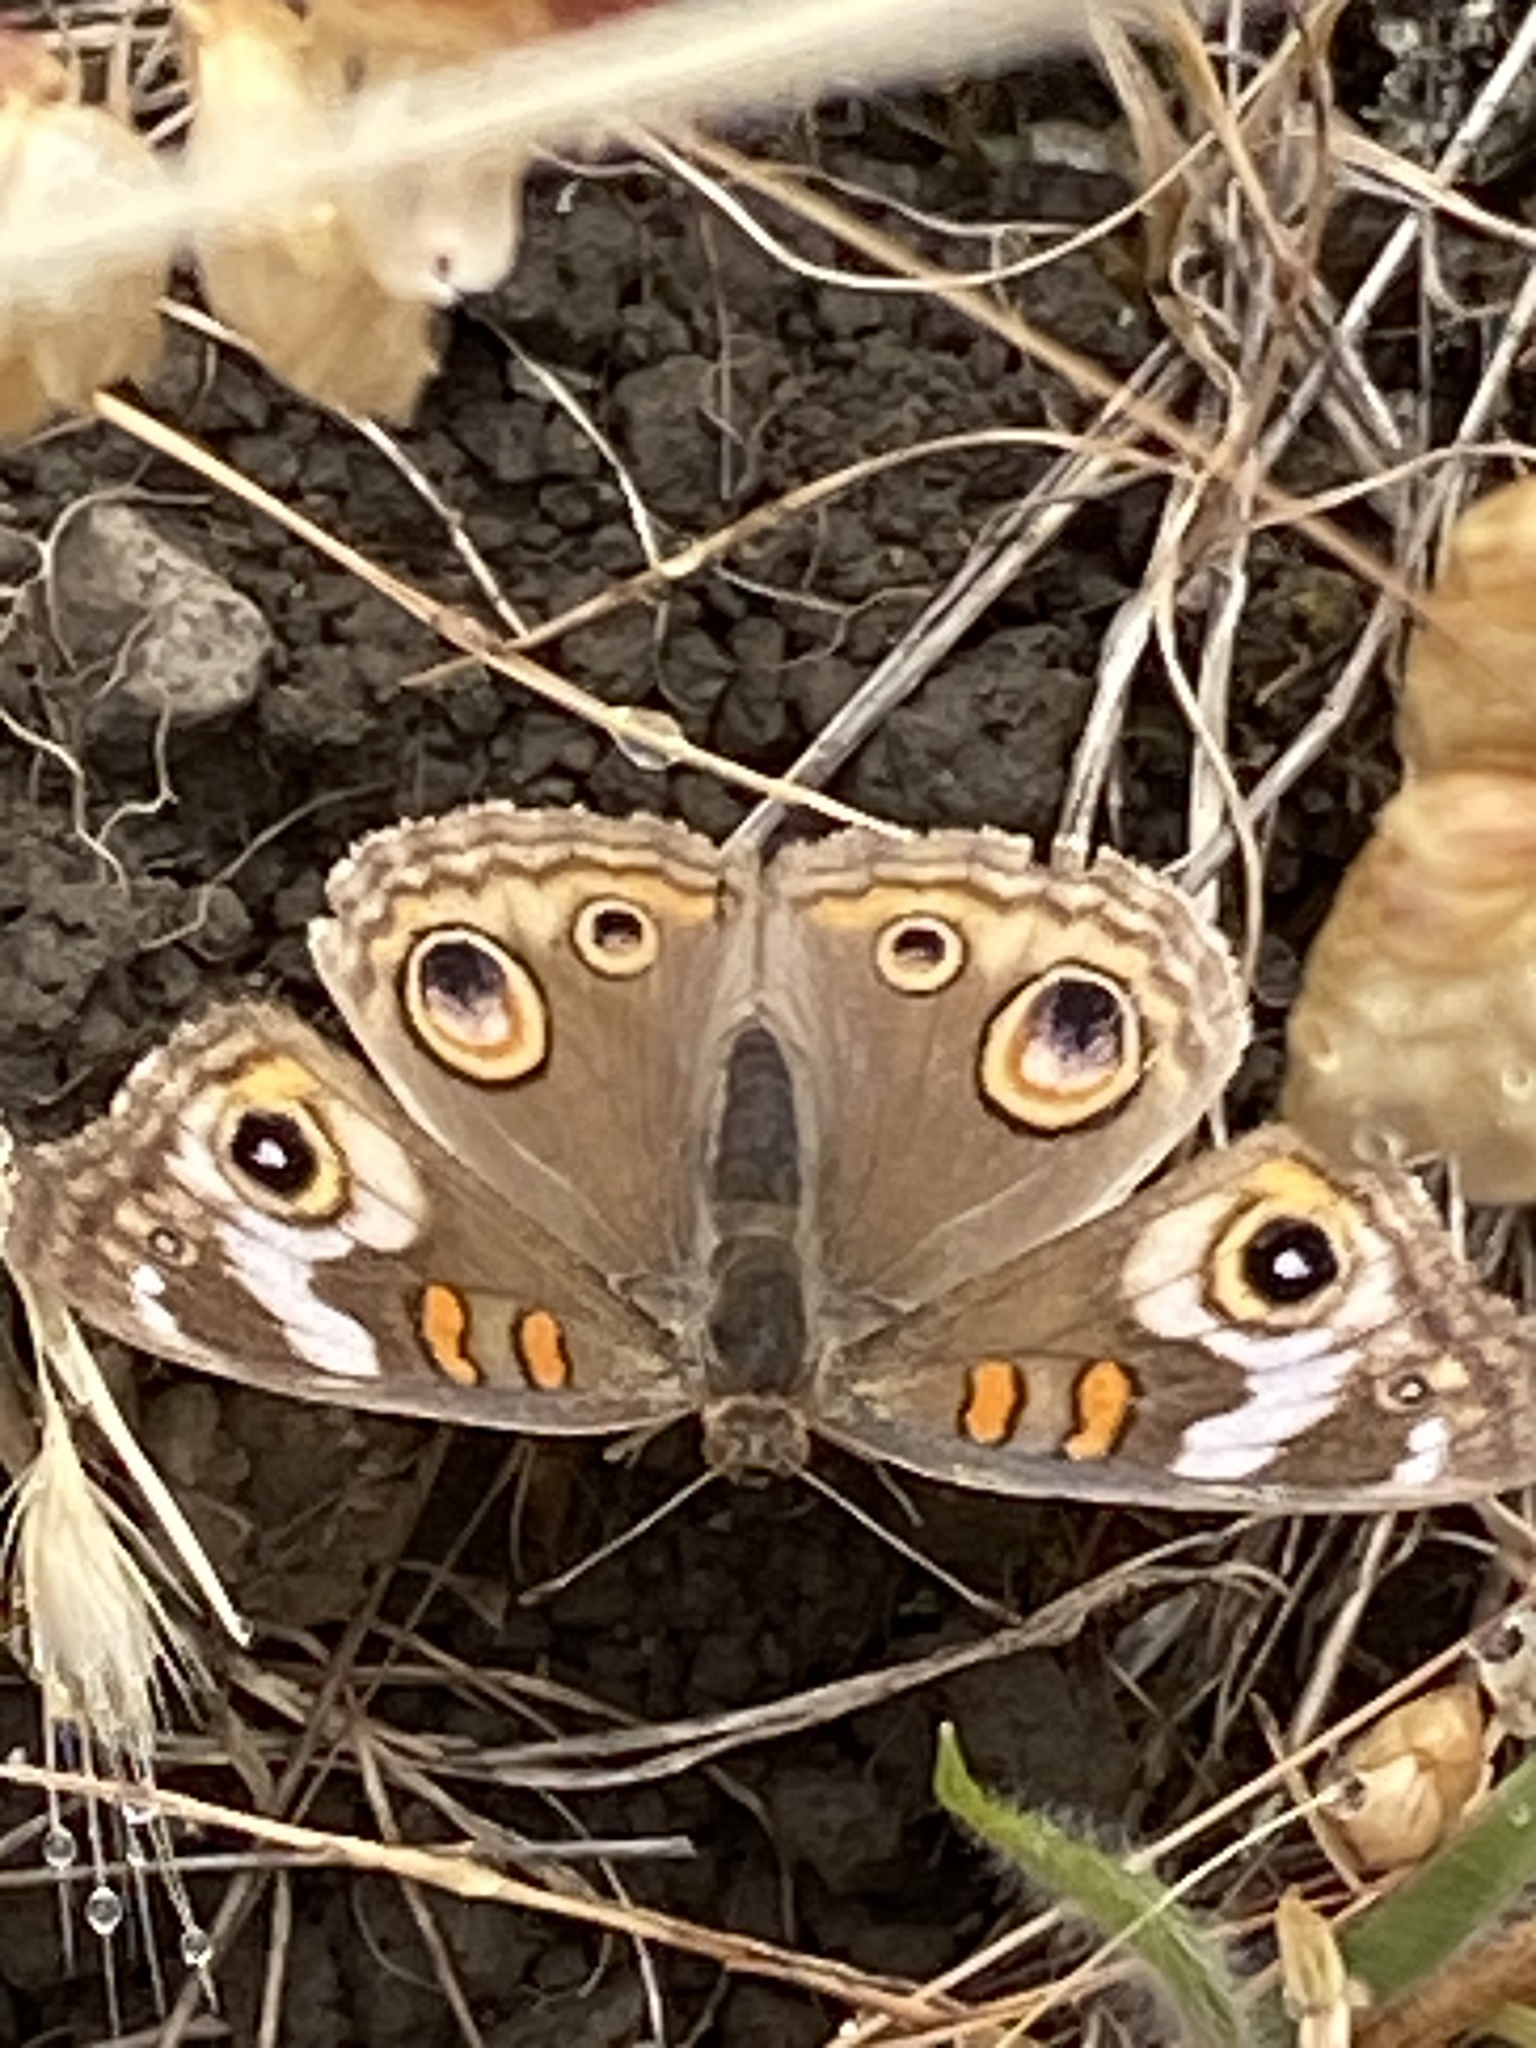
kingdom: Animalia
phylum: Arthropoda
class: Insecta
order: Lepidoptera
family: Nymphalidae
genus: Junonia
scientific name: Junonia grisea
